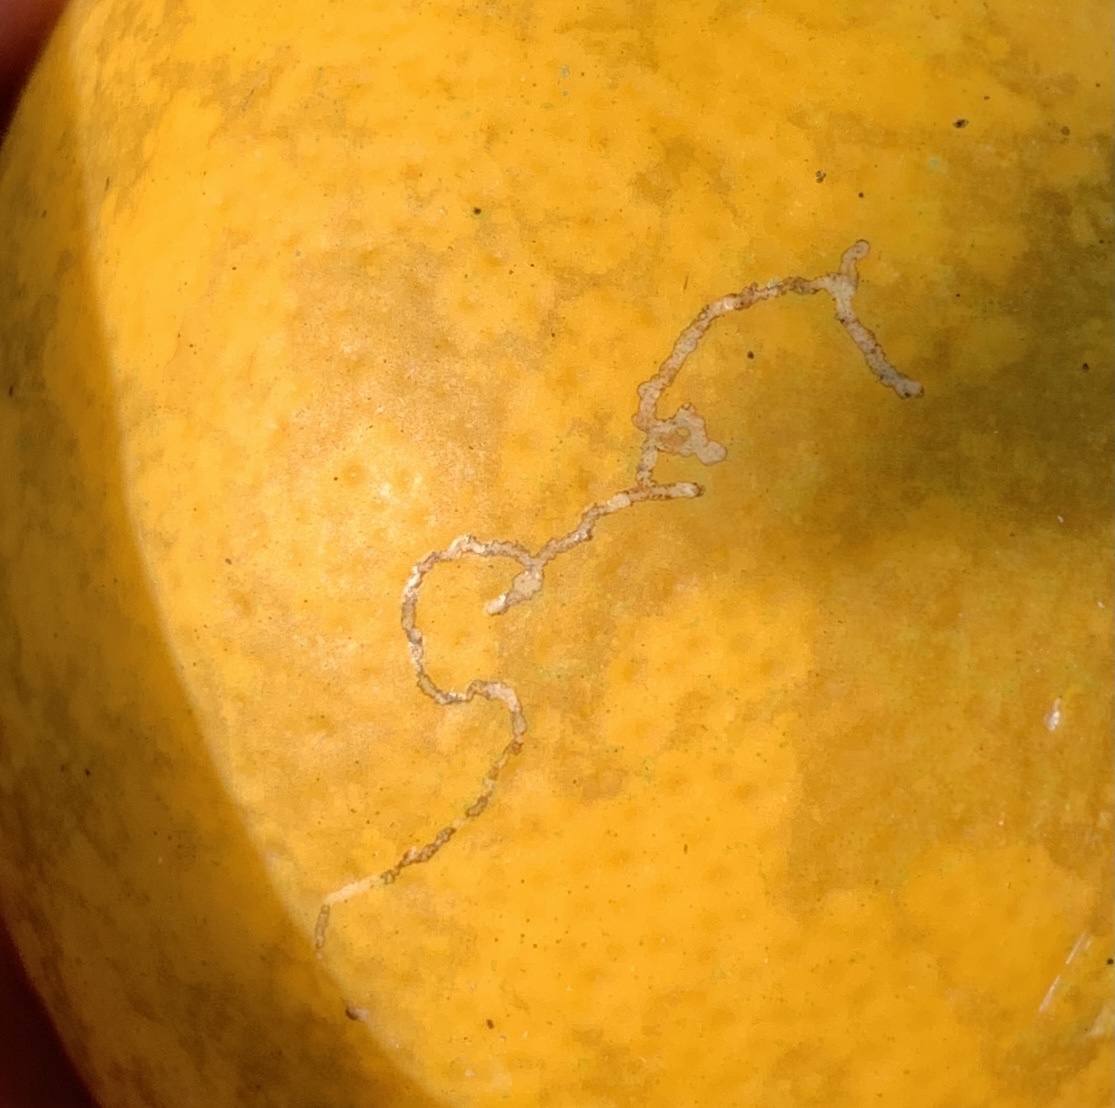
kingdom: Animalia
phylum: Arthropoda
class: Insecta
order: Lepidoptera
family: Gracillariidae
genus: Marmara
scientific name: Marmara gulosa
